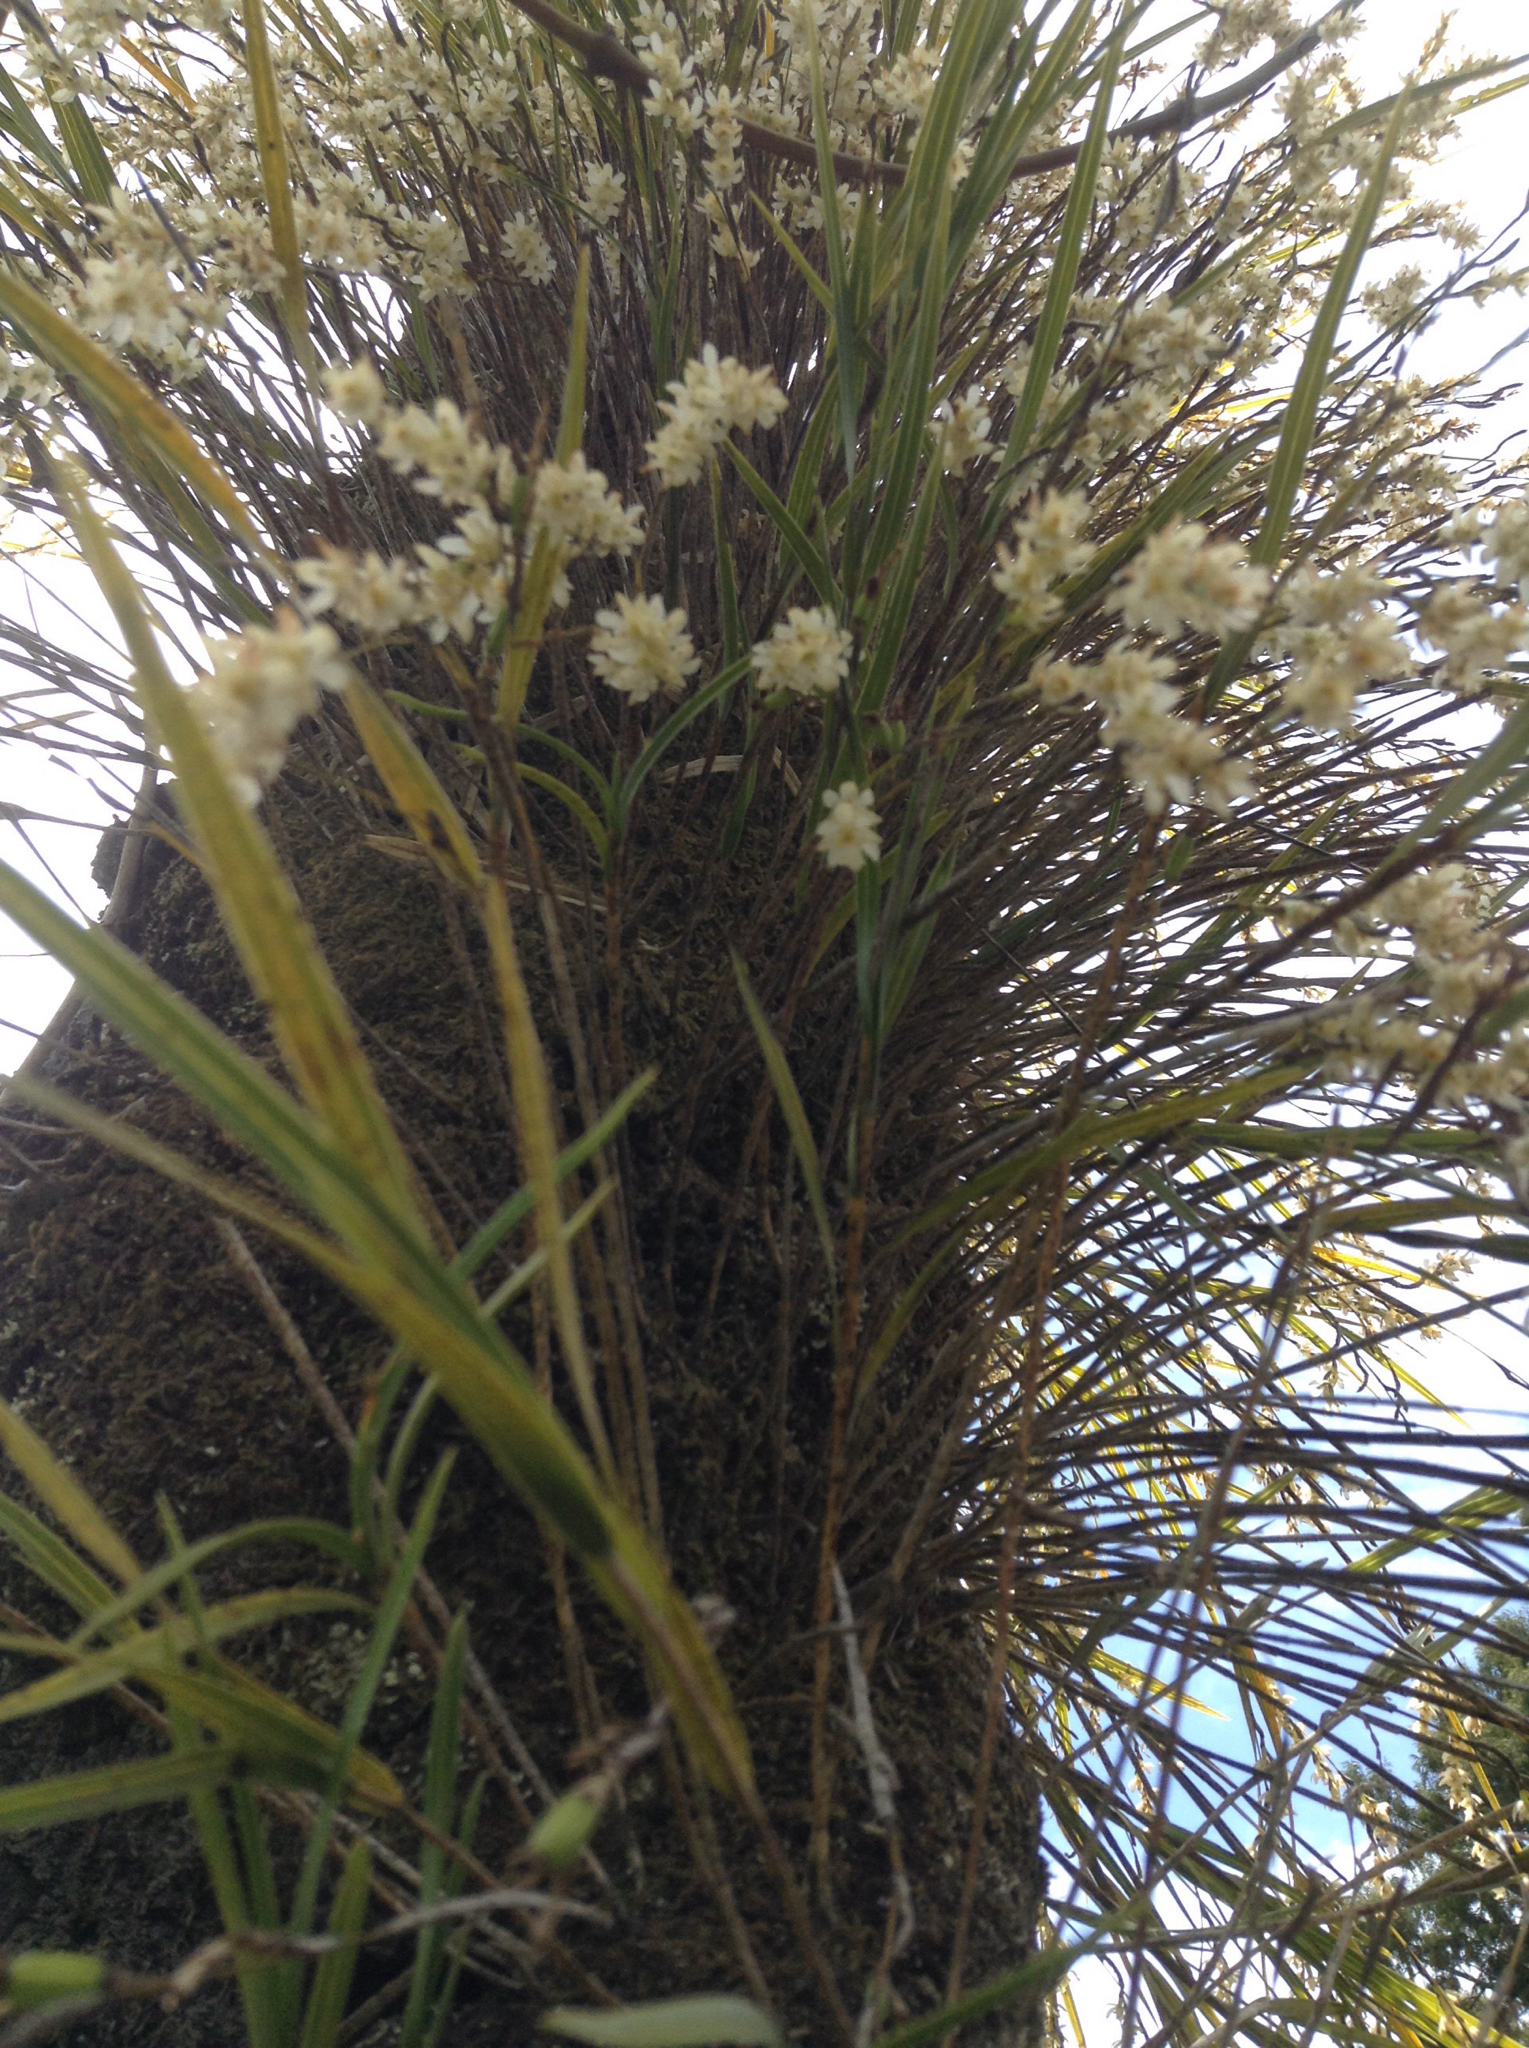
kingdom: Plantae
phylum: Tracheophyta
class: Liliopsida
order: Asparagales
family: Orchidaceae
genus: Earina
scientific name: Earina mucronata
